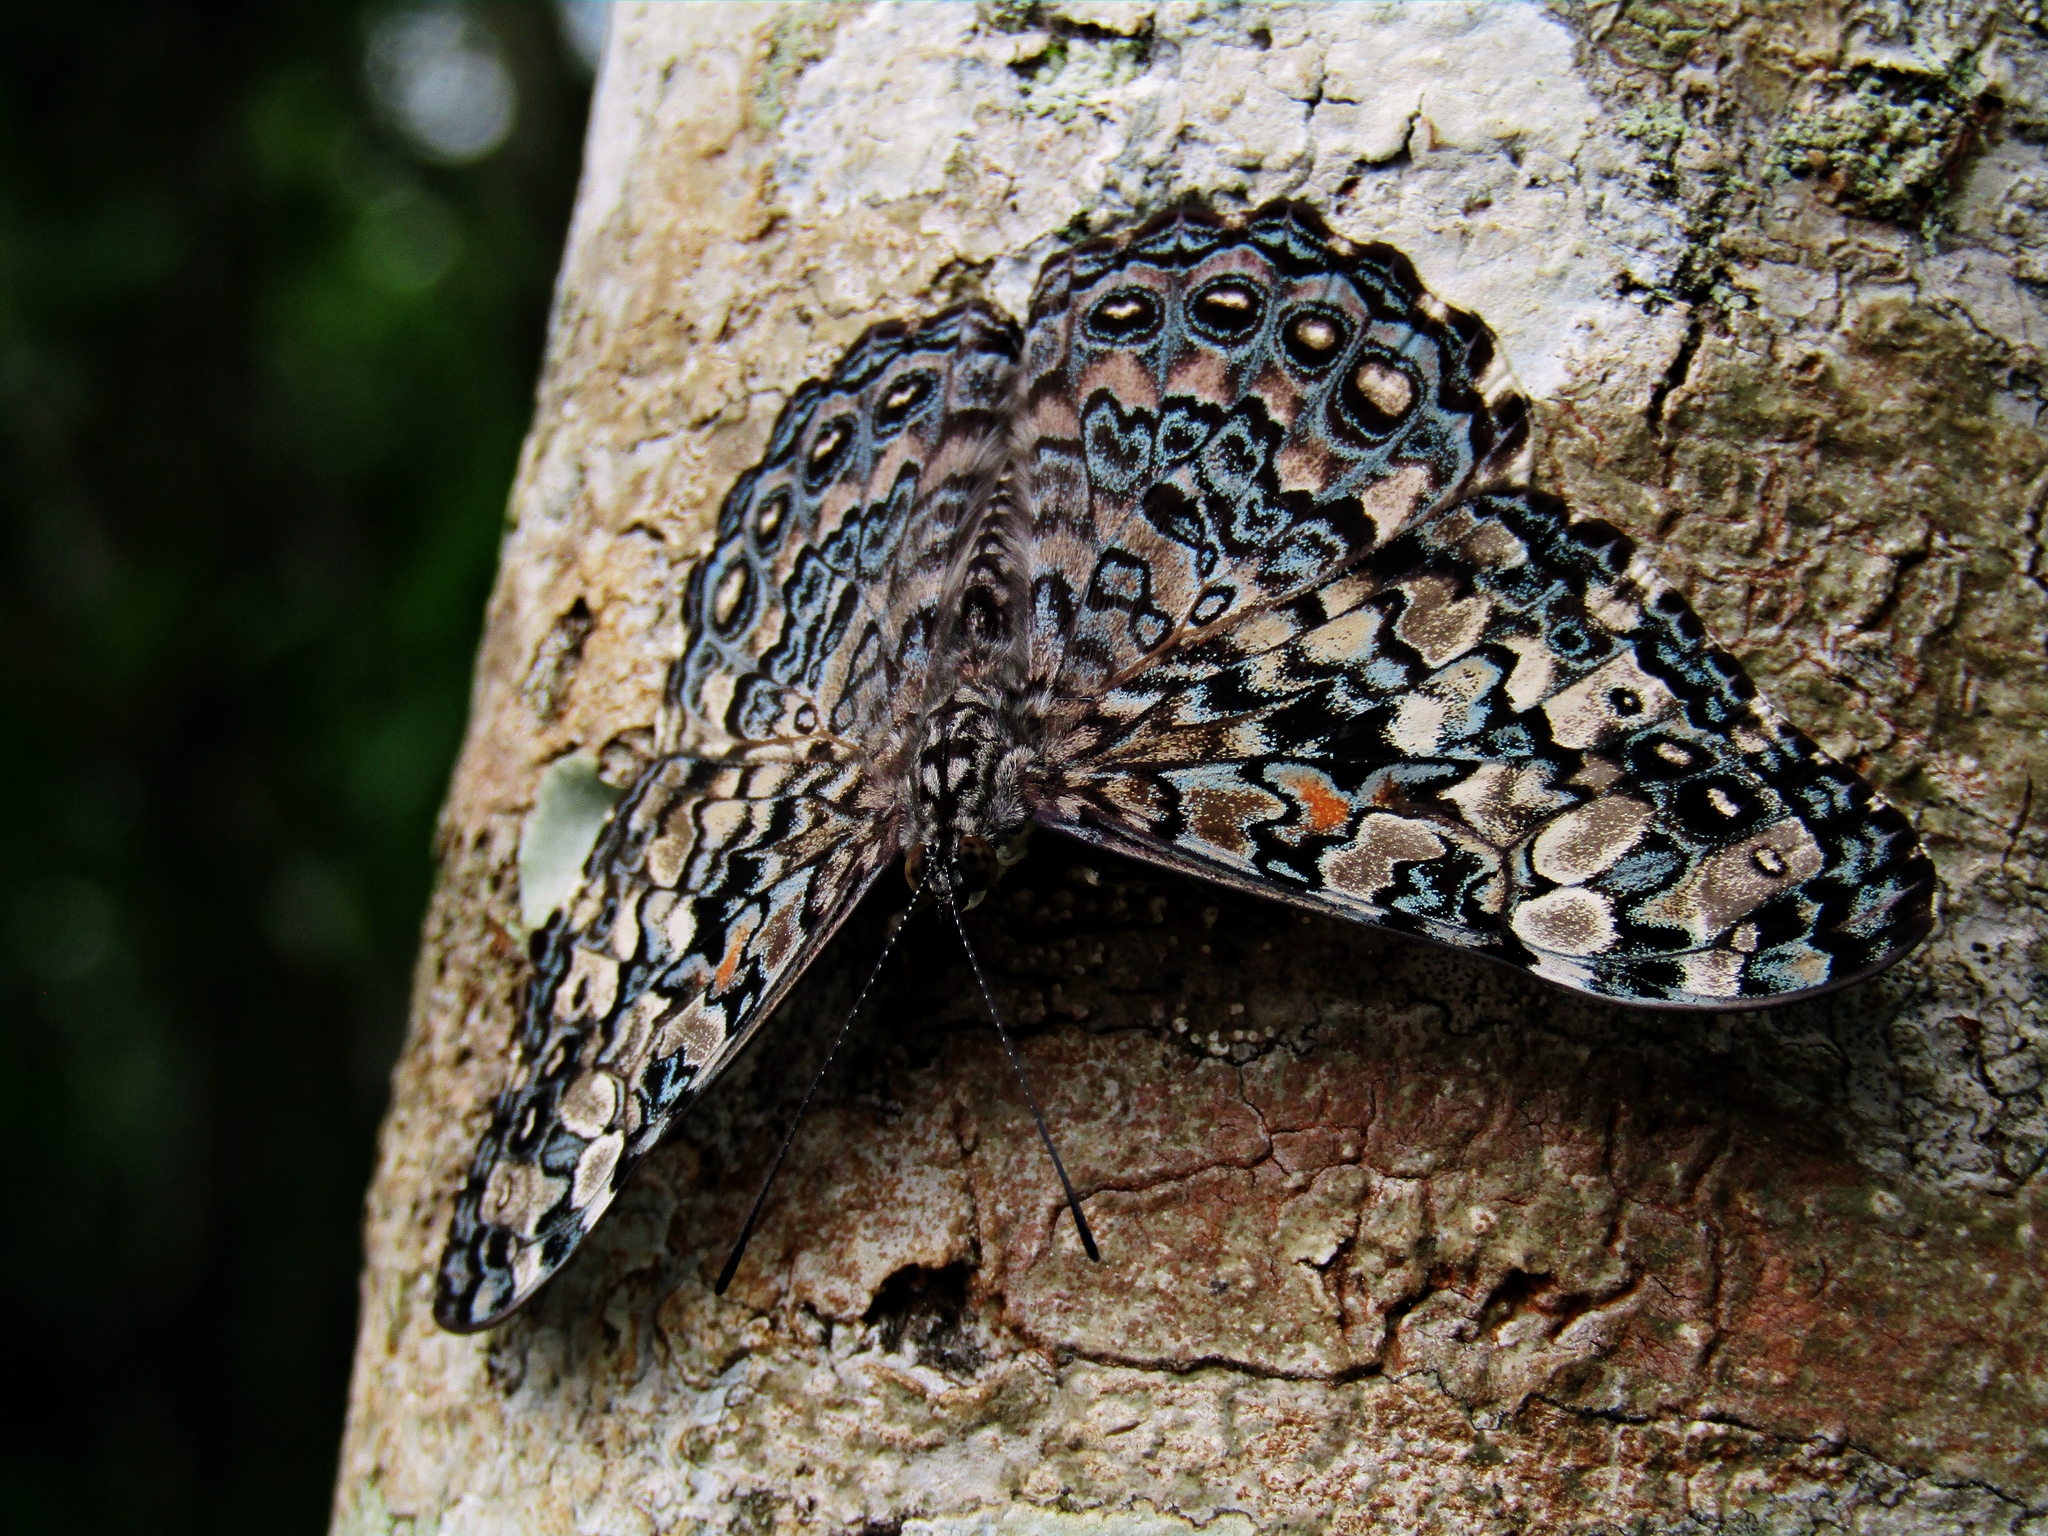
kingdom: Animalia
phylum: Arthropoda
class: Insecta
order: Lepidoptera
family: Nymphalidae
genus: Hamadryas
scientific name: Hamadryas epinome
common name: Epinome cracker
